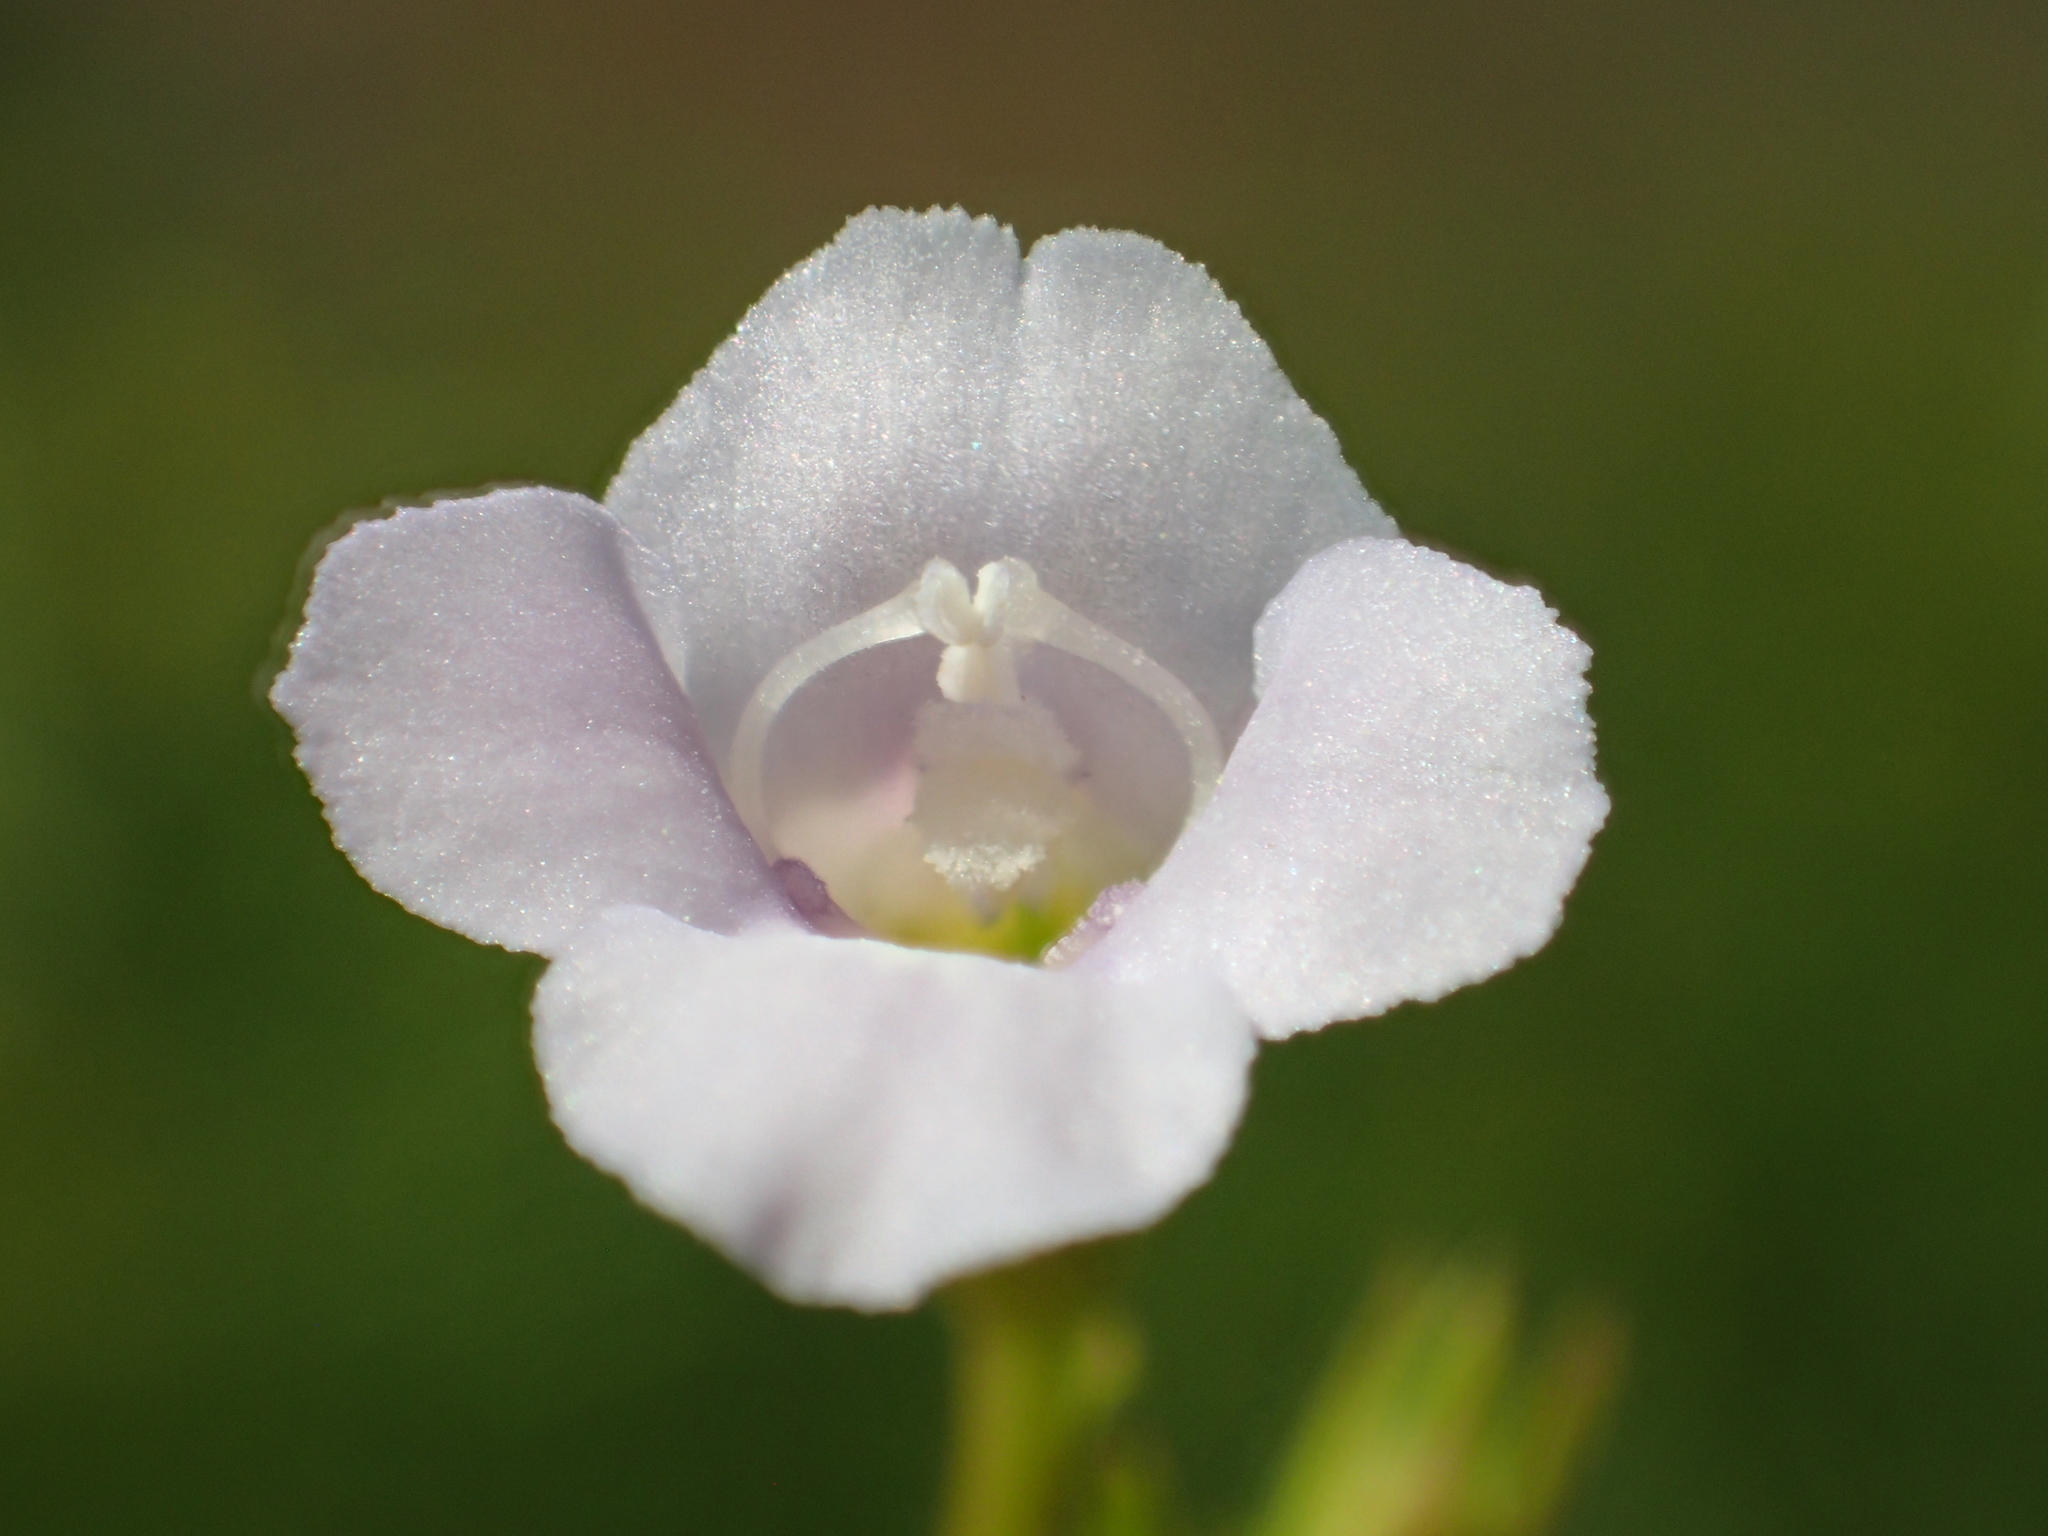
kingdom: Plantae
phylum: Tracheophyta
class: Magnoliopsida
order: Lamiales
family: Linderniaceae
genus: Torenia
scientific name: Torenia anagallis
